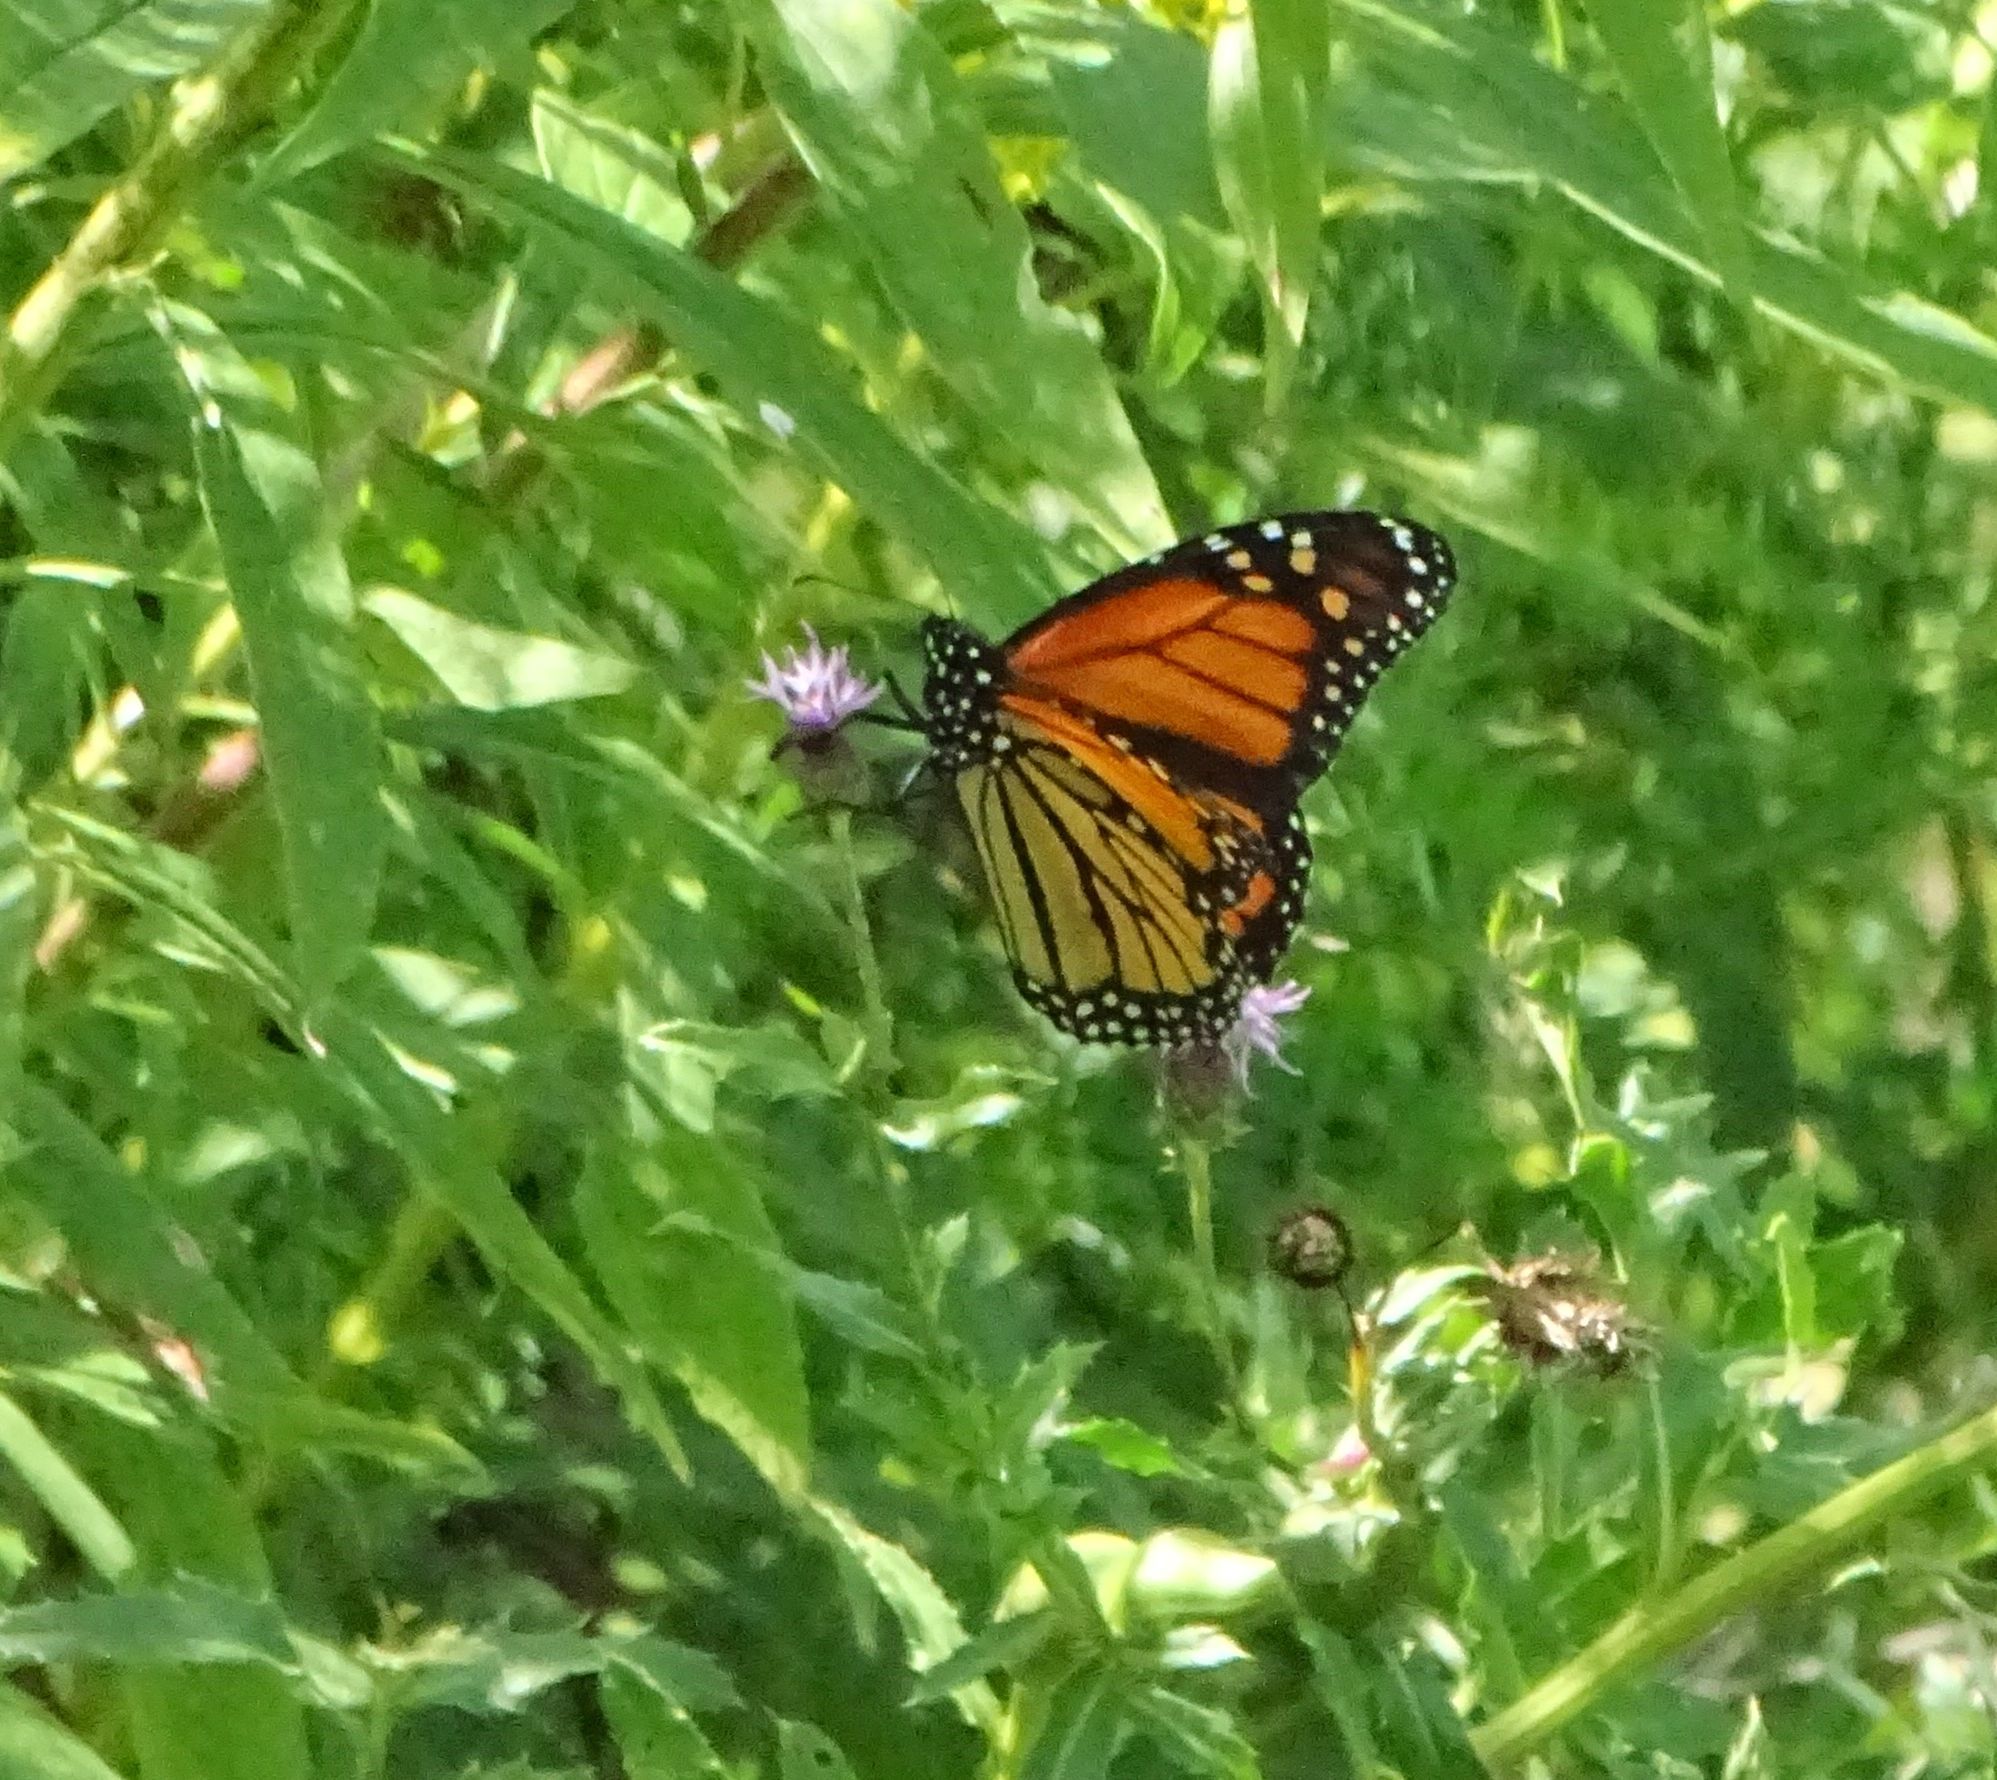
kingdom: Animalia
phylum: Arthropoda
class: Insecta
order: Lepidoptera
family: Nymphalidae
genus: Danaus
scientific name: Danaus plexippus
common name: Monarch
